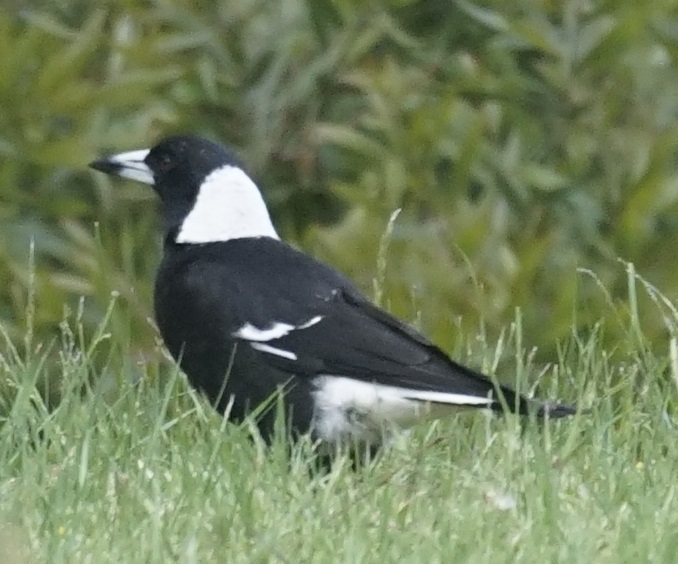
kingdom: Animalia
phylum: Chordata
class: Aves
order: Passeriformes
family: Cracticidae
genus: Gymnorhina
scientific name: Gymnorhina tibicen
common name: Australian magpie
